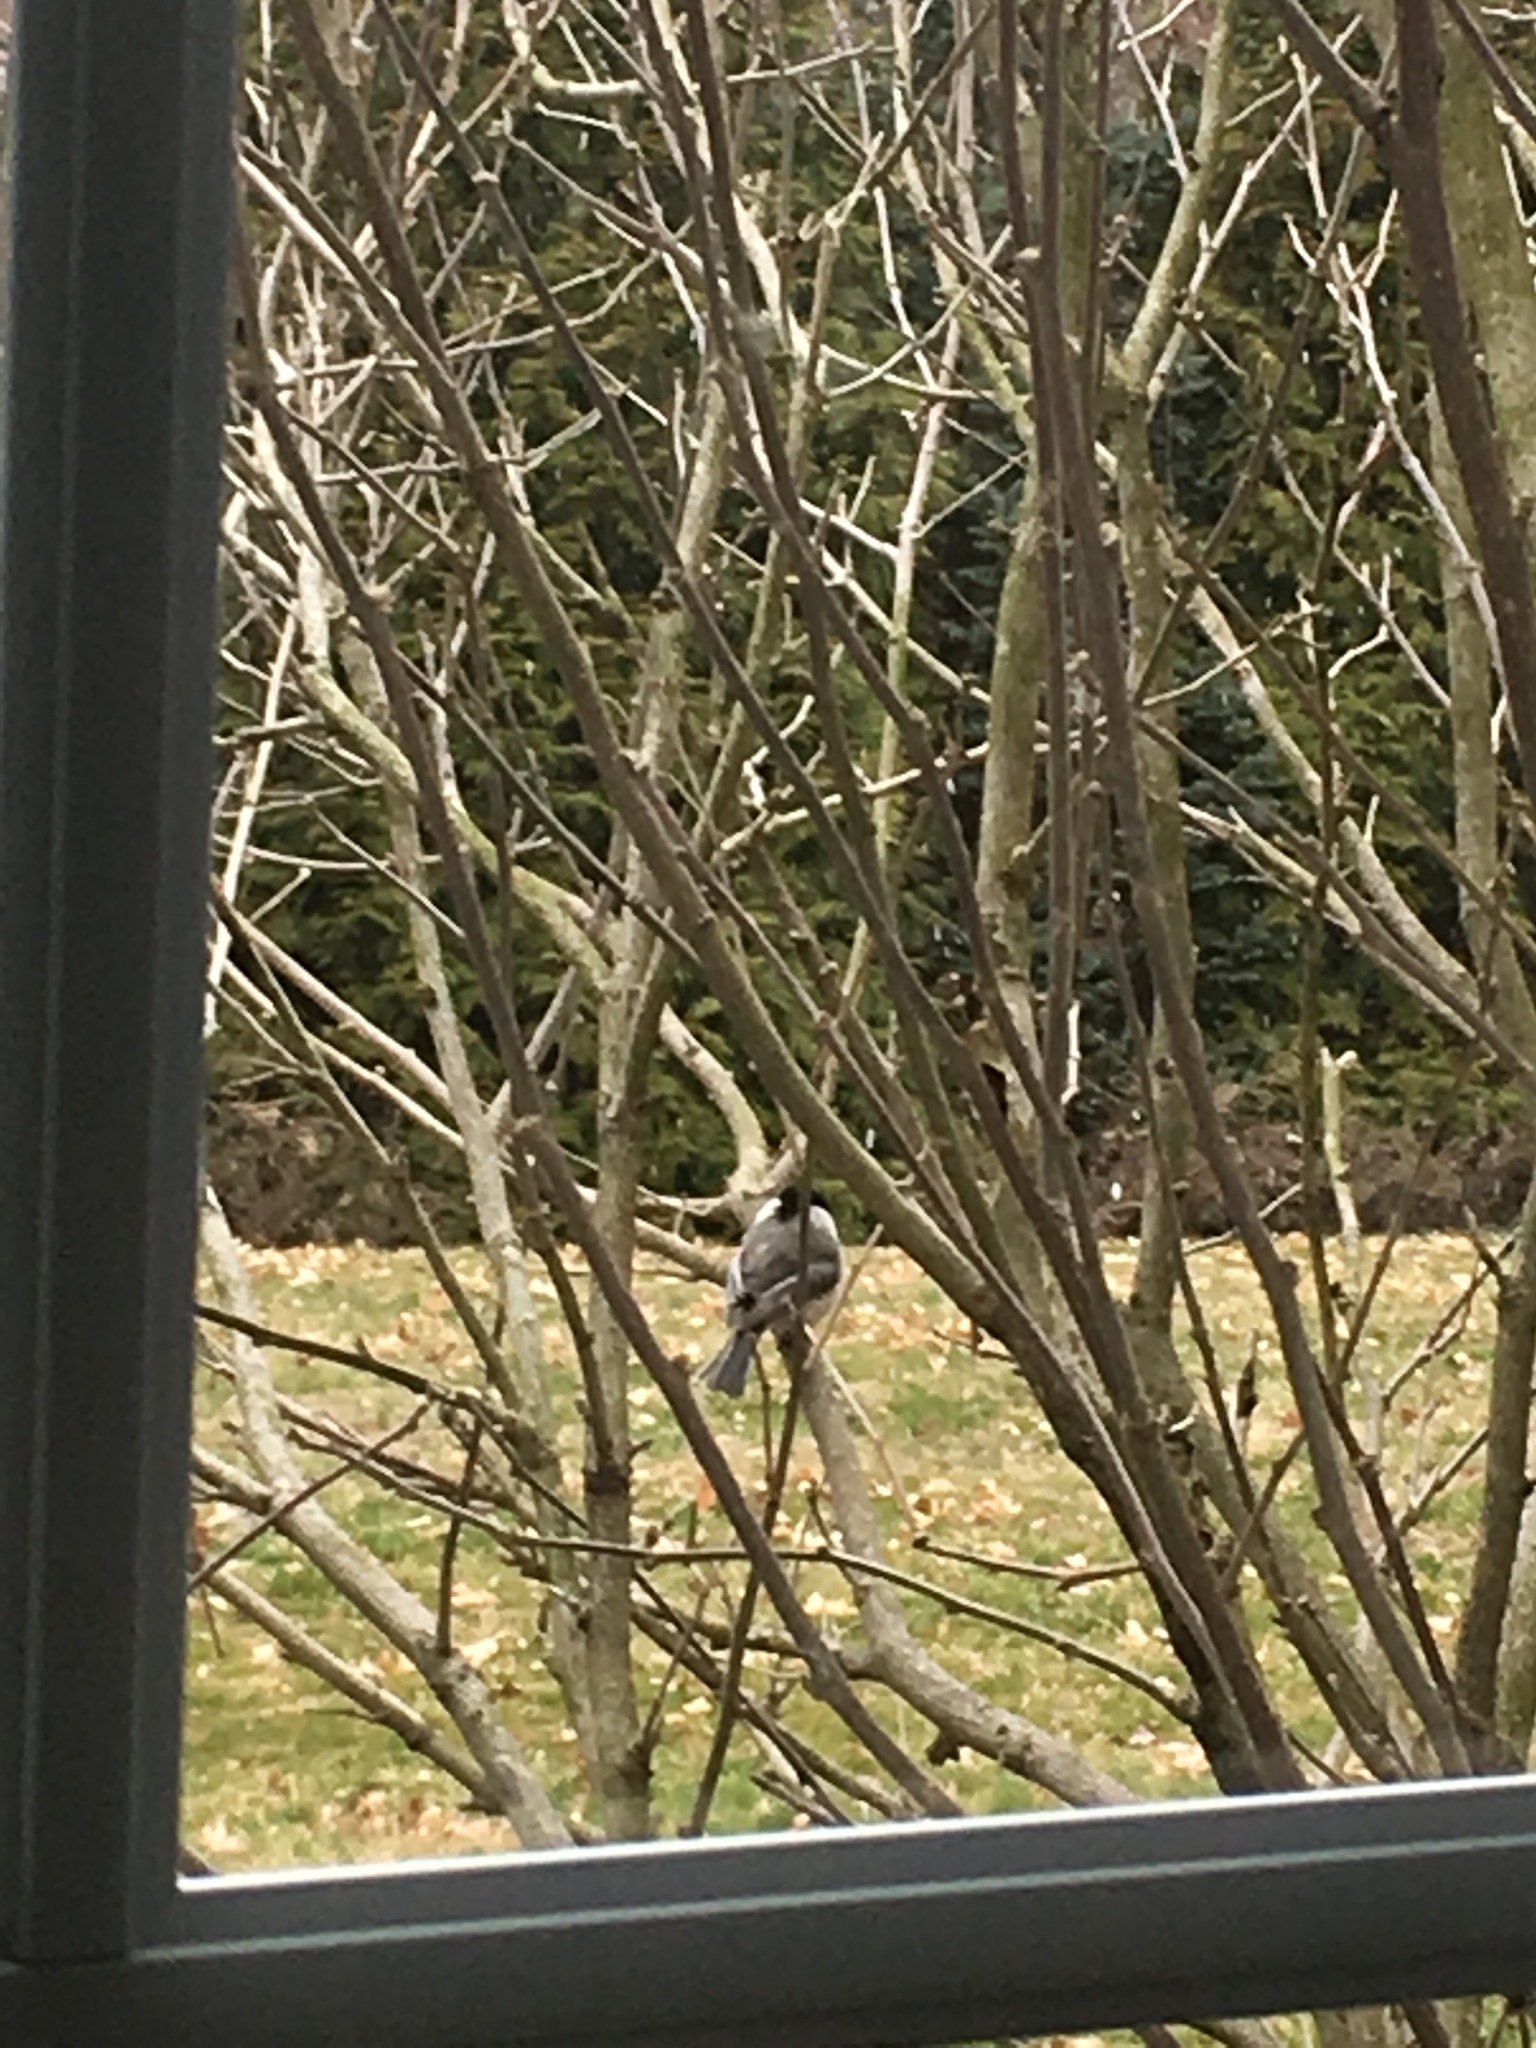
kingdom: Animalia
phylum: Chordata
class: Aves
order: Passeriformes
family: Paridae
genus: Poecile
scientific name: Poecile atricapillus
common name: Black-capped chickadee
